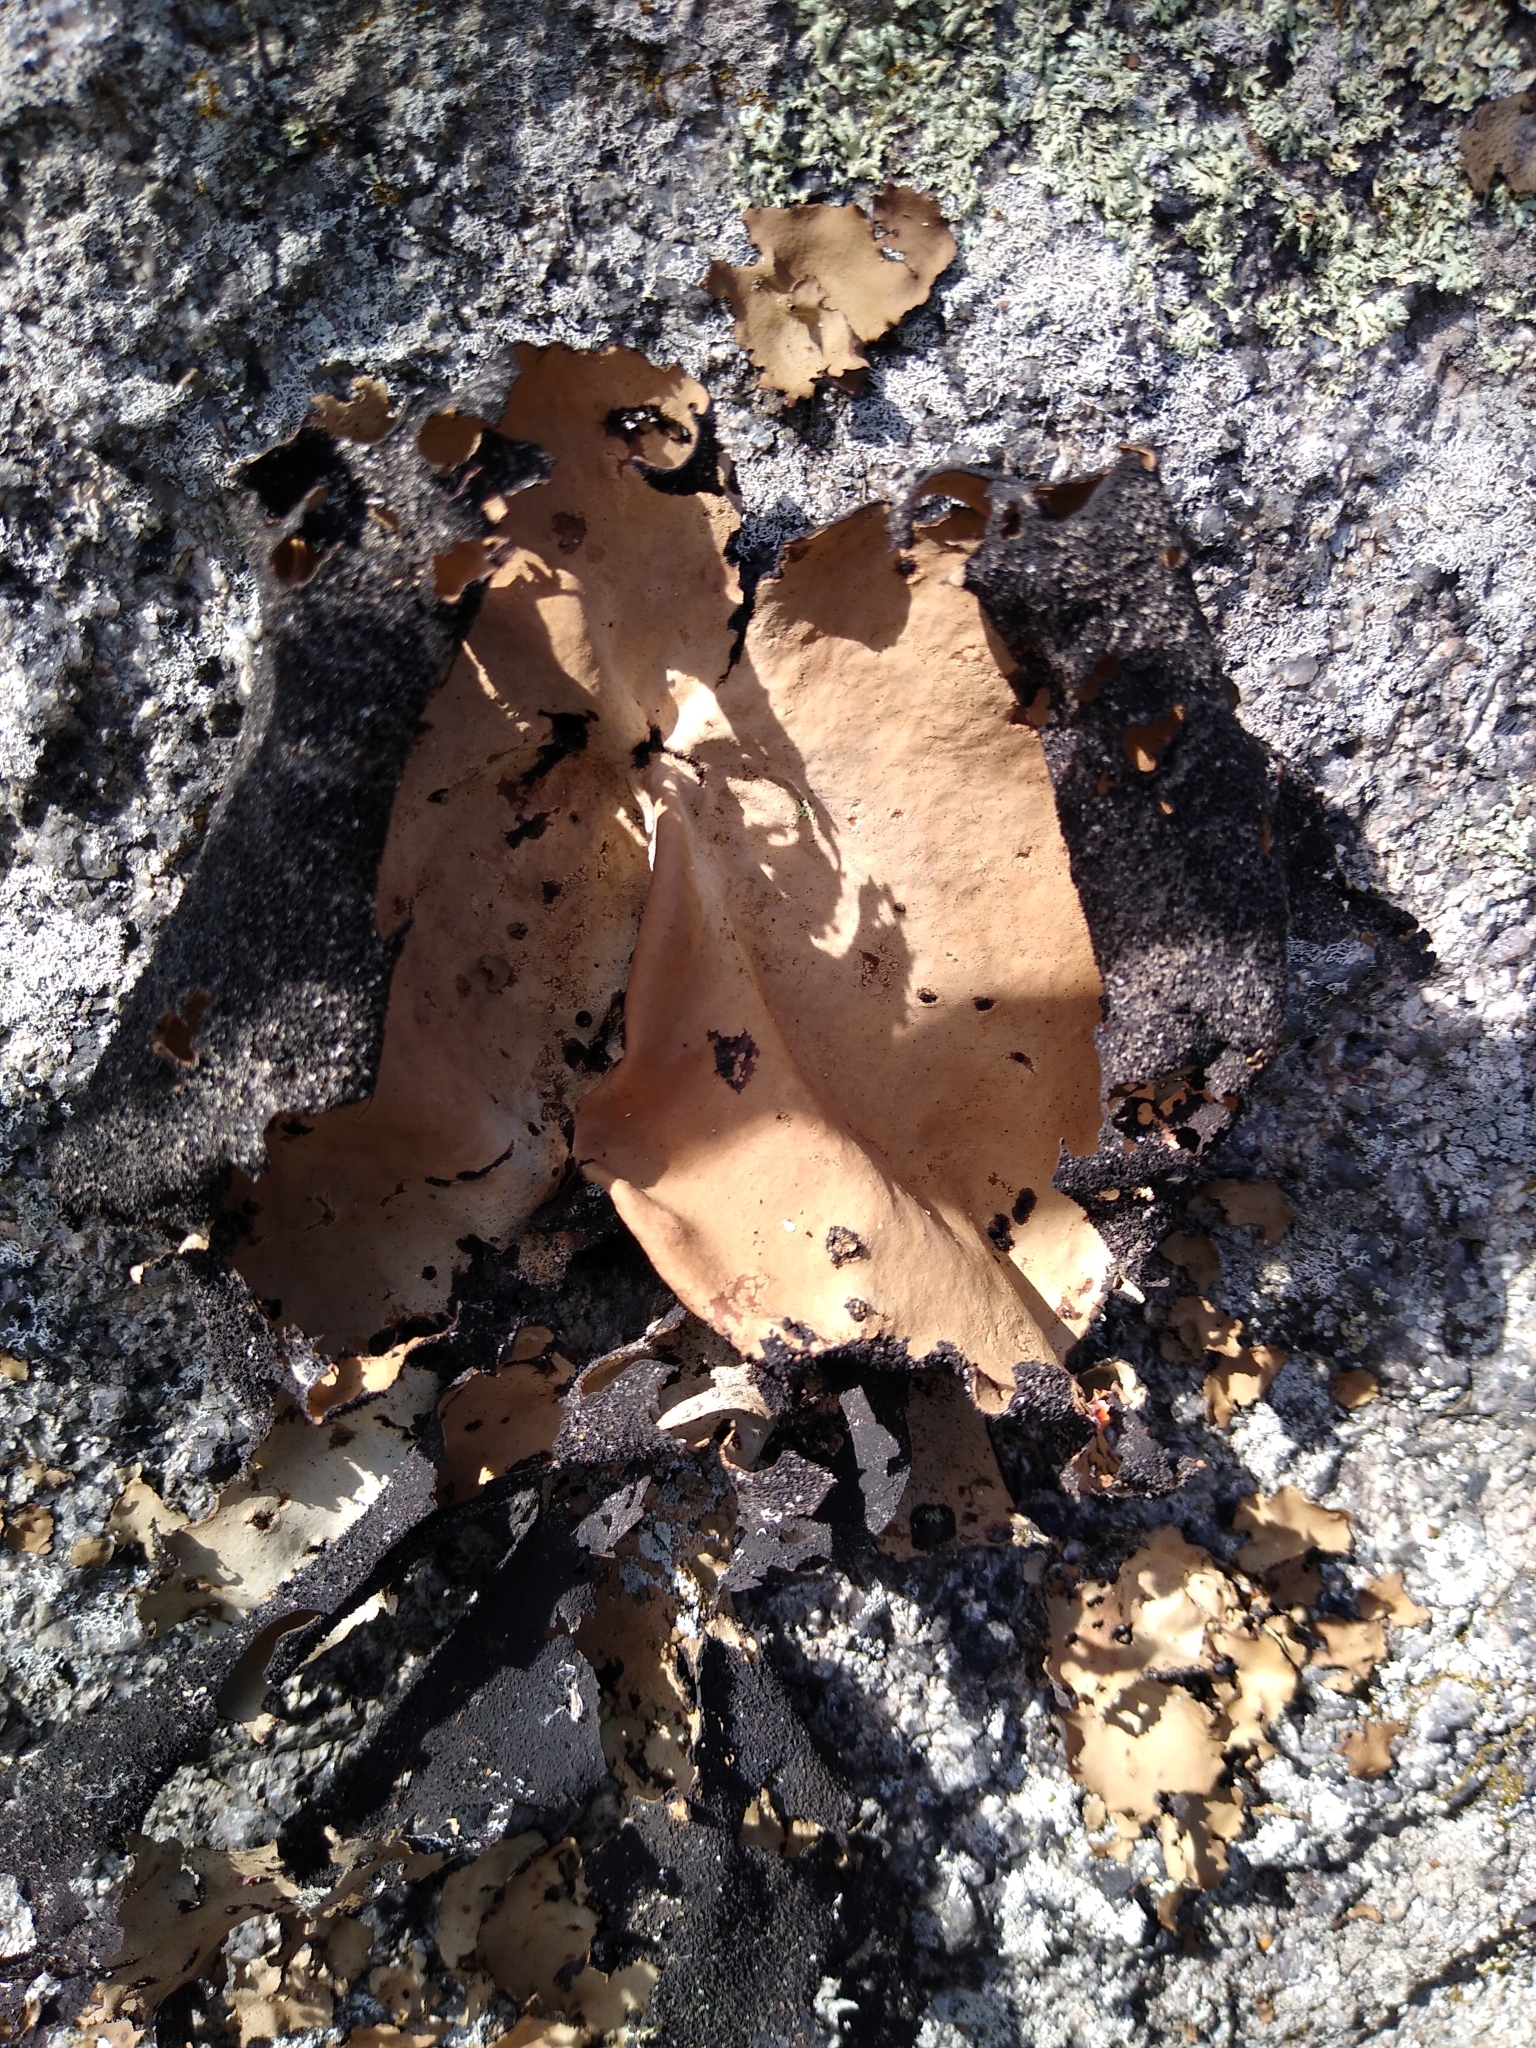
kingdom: Fungi
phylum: Ascomycota
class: Lecanoromycetes
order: Umbilicariales
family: Umbilicariaceae
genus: Umbilicaria
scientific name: Umbilicaria mammulata
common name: Smooth rock tripe
